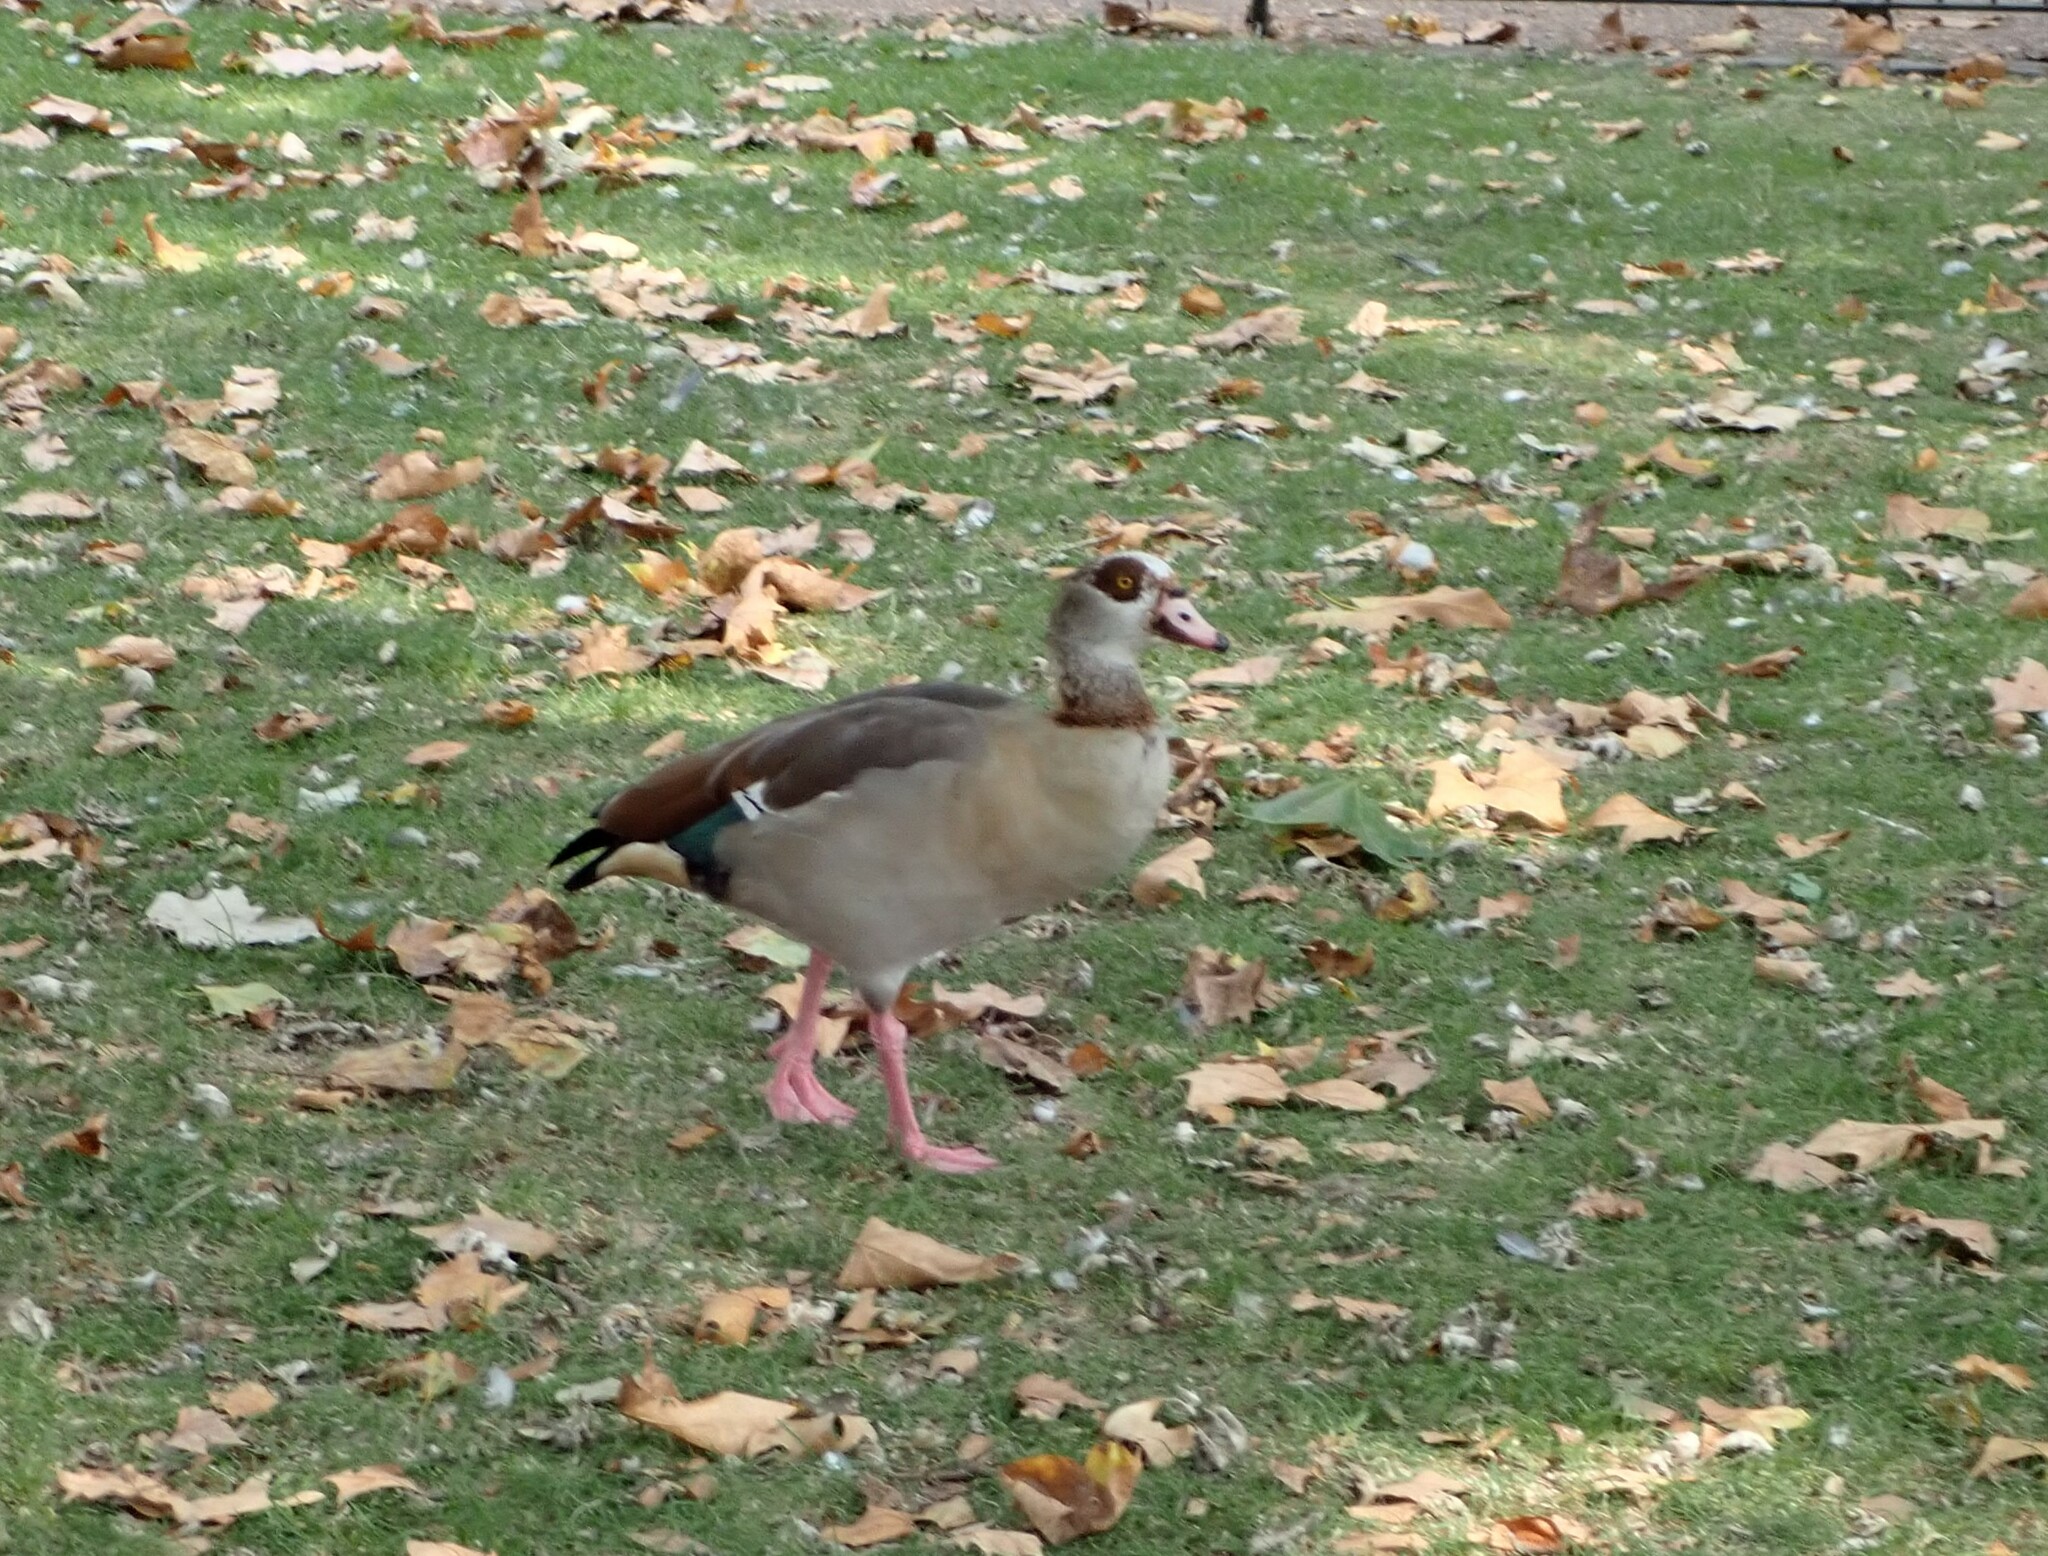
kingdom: Animalia
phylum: Chordata
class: Aves
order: Anseriformes
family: Anatidae
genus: Alopochen
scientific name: Alopochen aegyptiaca
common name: Egyptian goose
